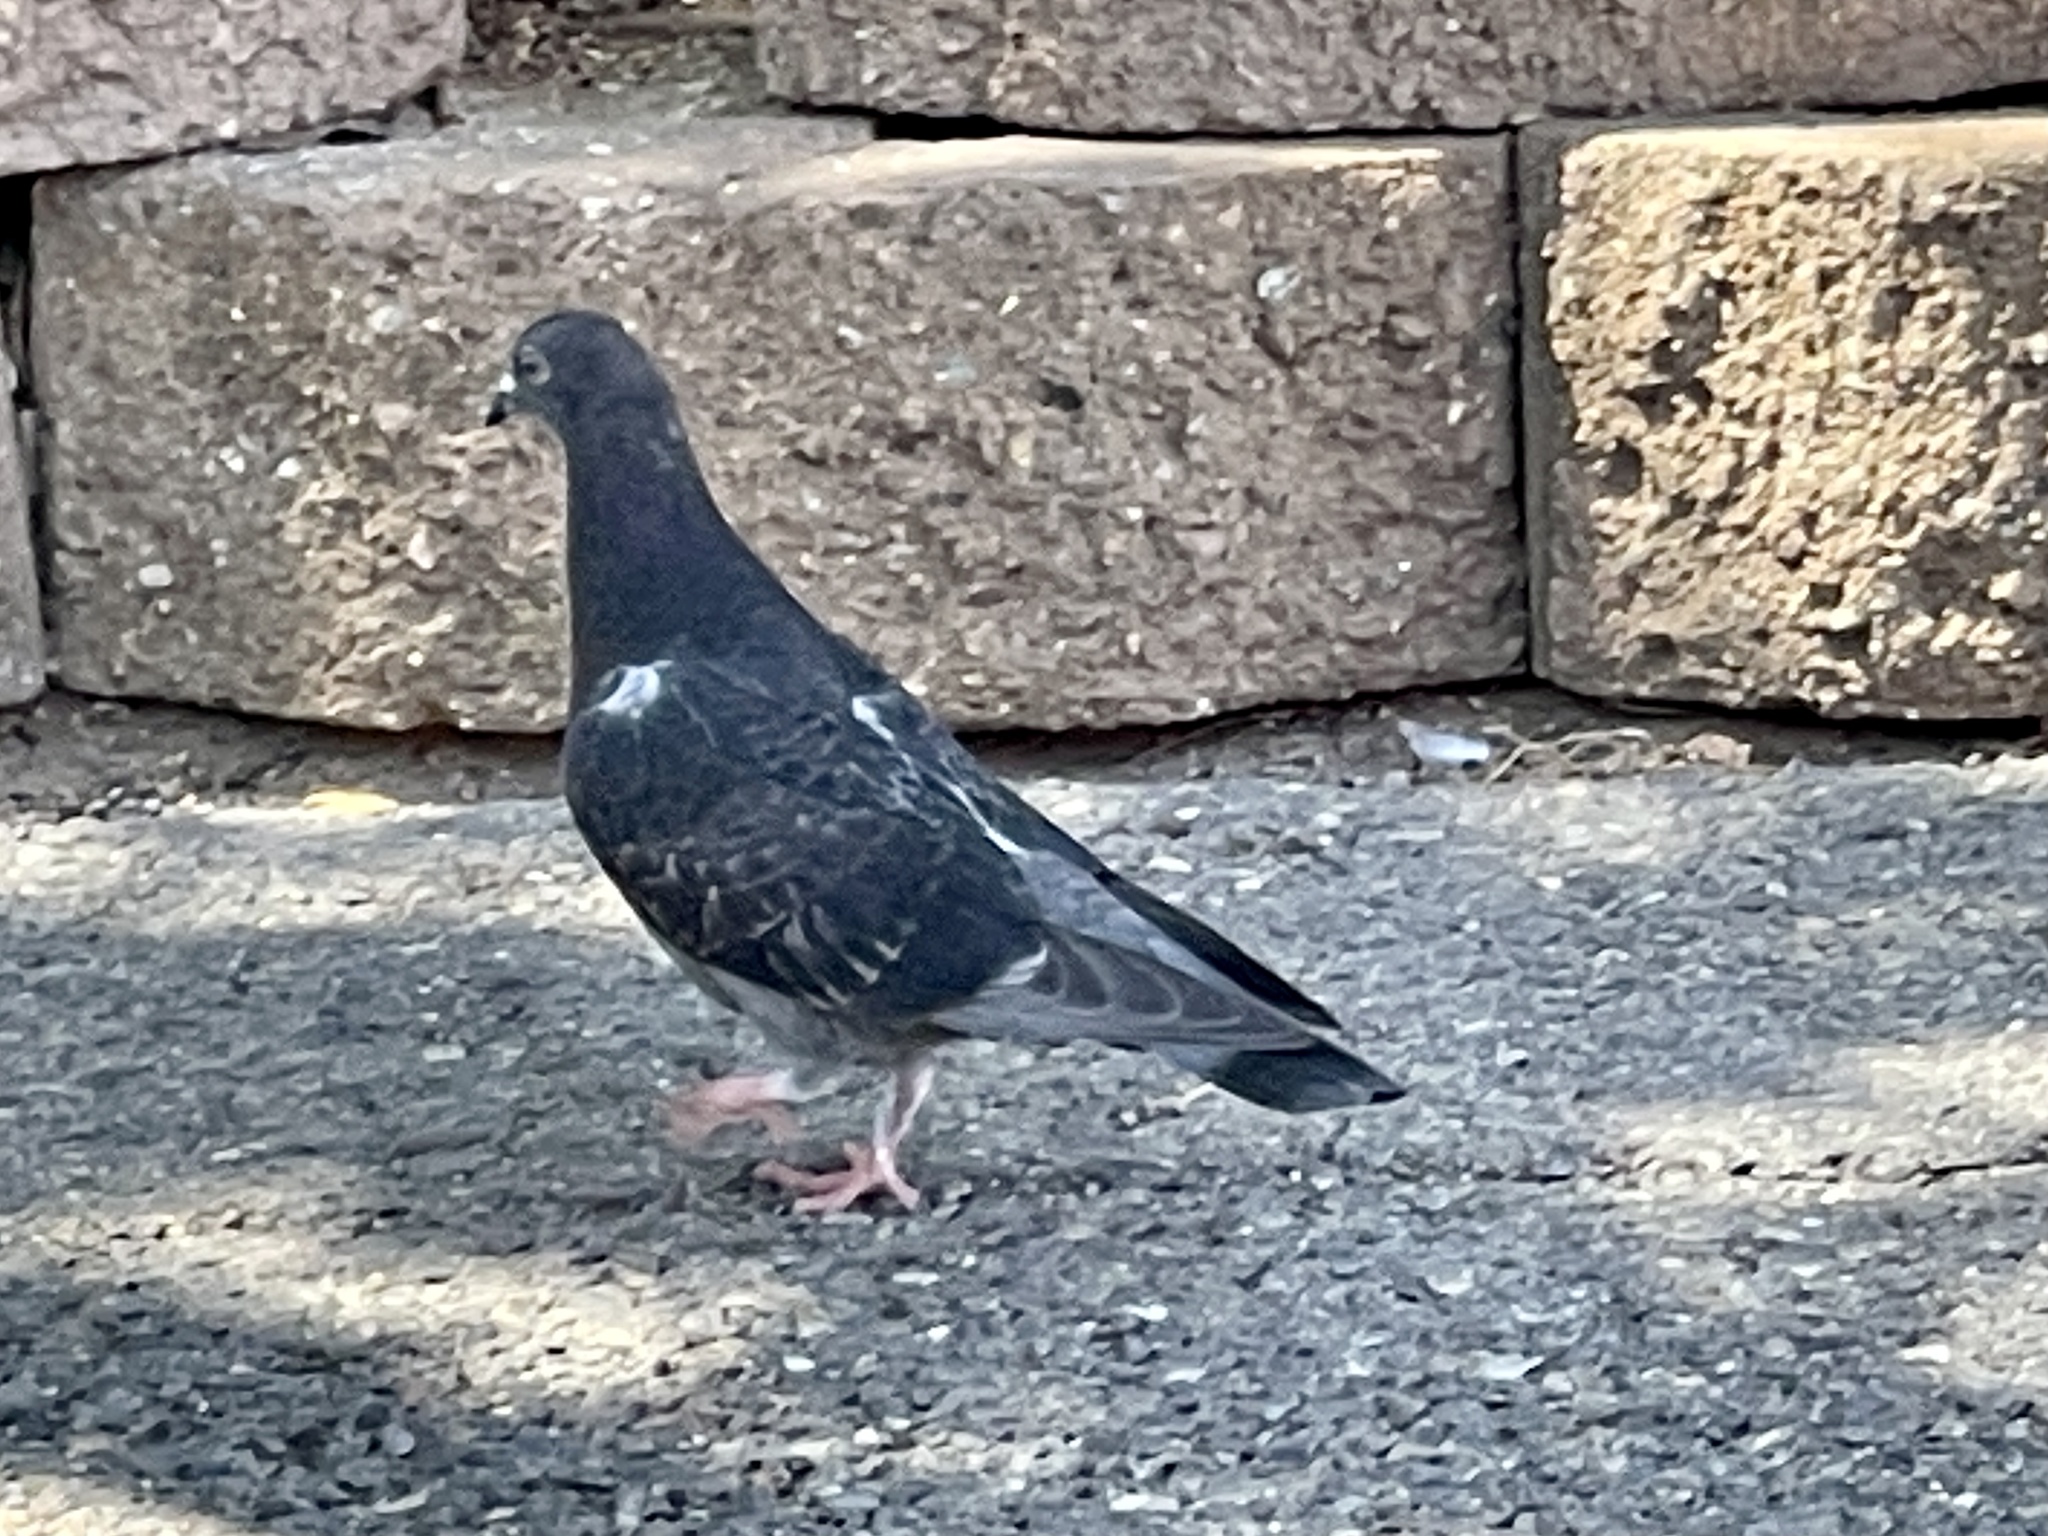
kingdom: Animalia
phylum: Chordata
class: Aves
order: Columbiformes
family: Columbidae
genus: Columba
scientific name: Columba livia
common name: Rock pigeon
